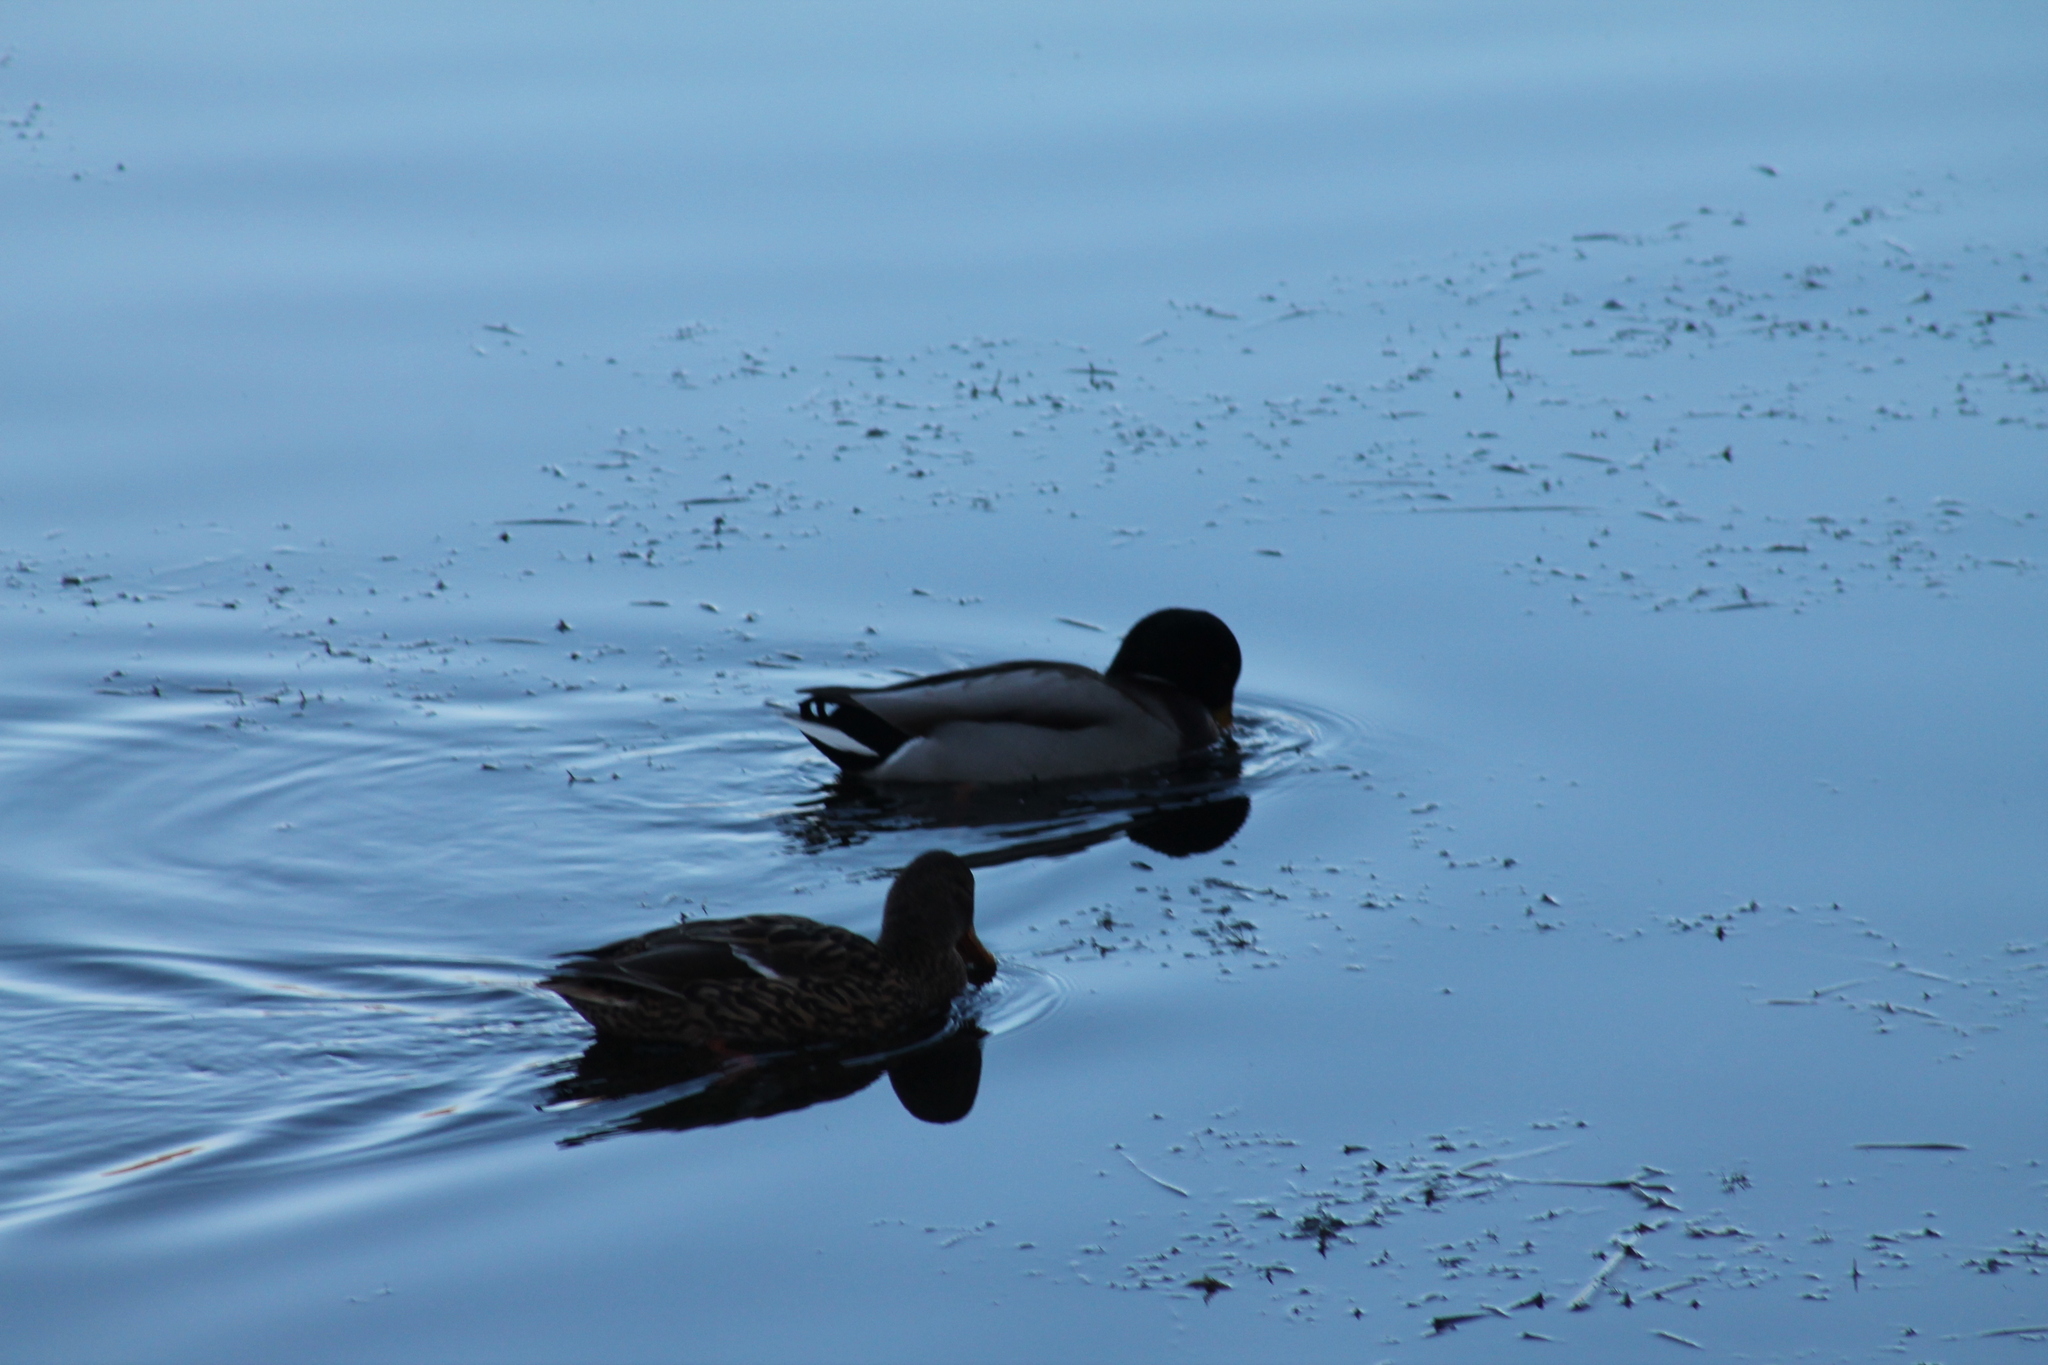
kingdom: Animalia
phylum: Chordata
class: Aves
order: Anseriformes
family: Anatidae
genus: Anas
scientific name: Anas platyrhynchos
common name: Mallard
